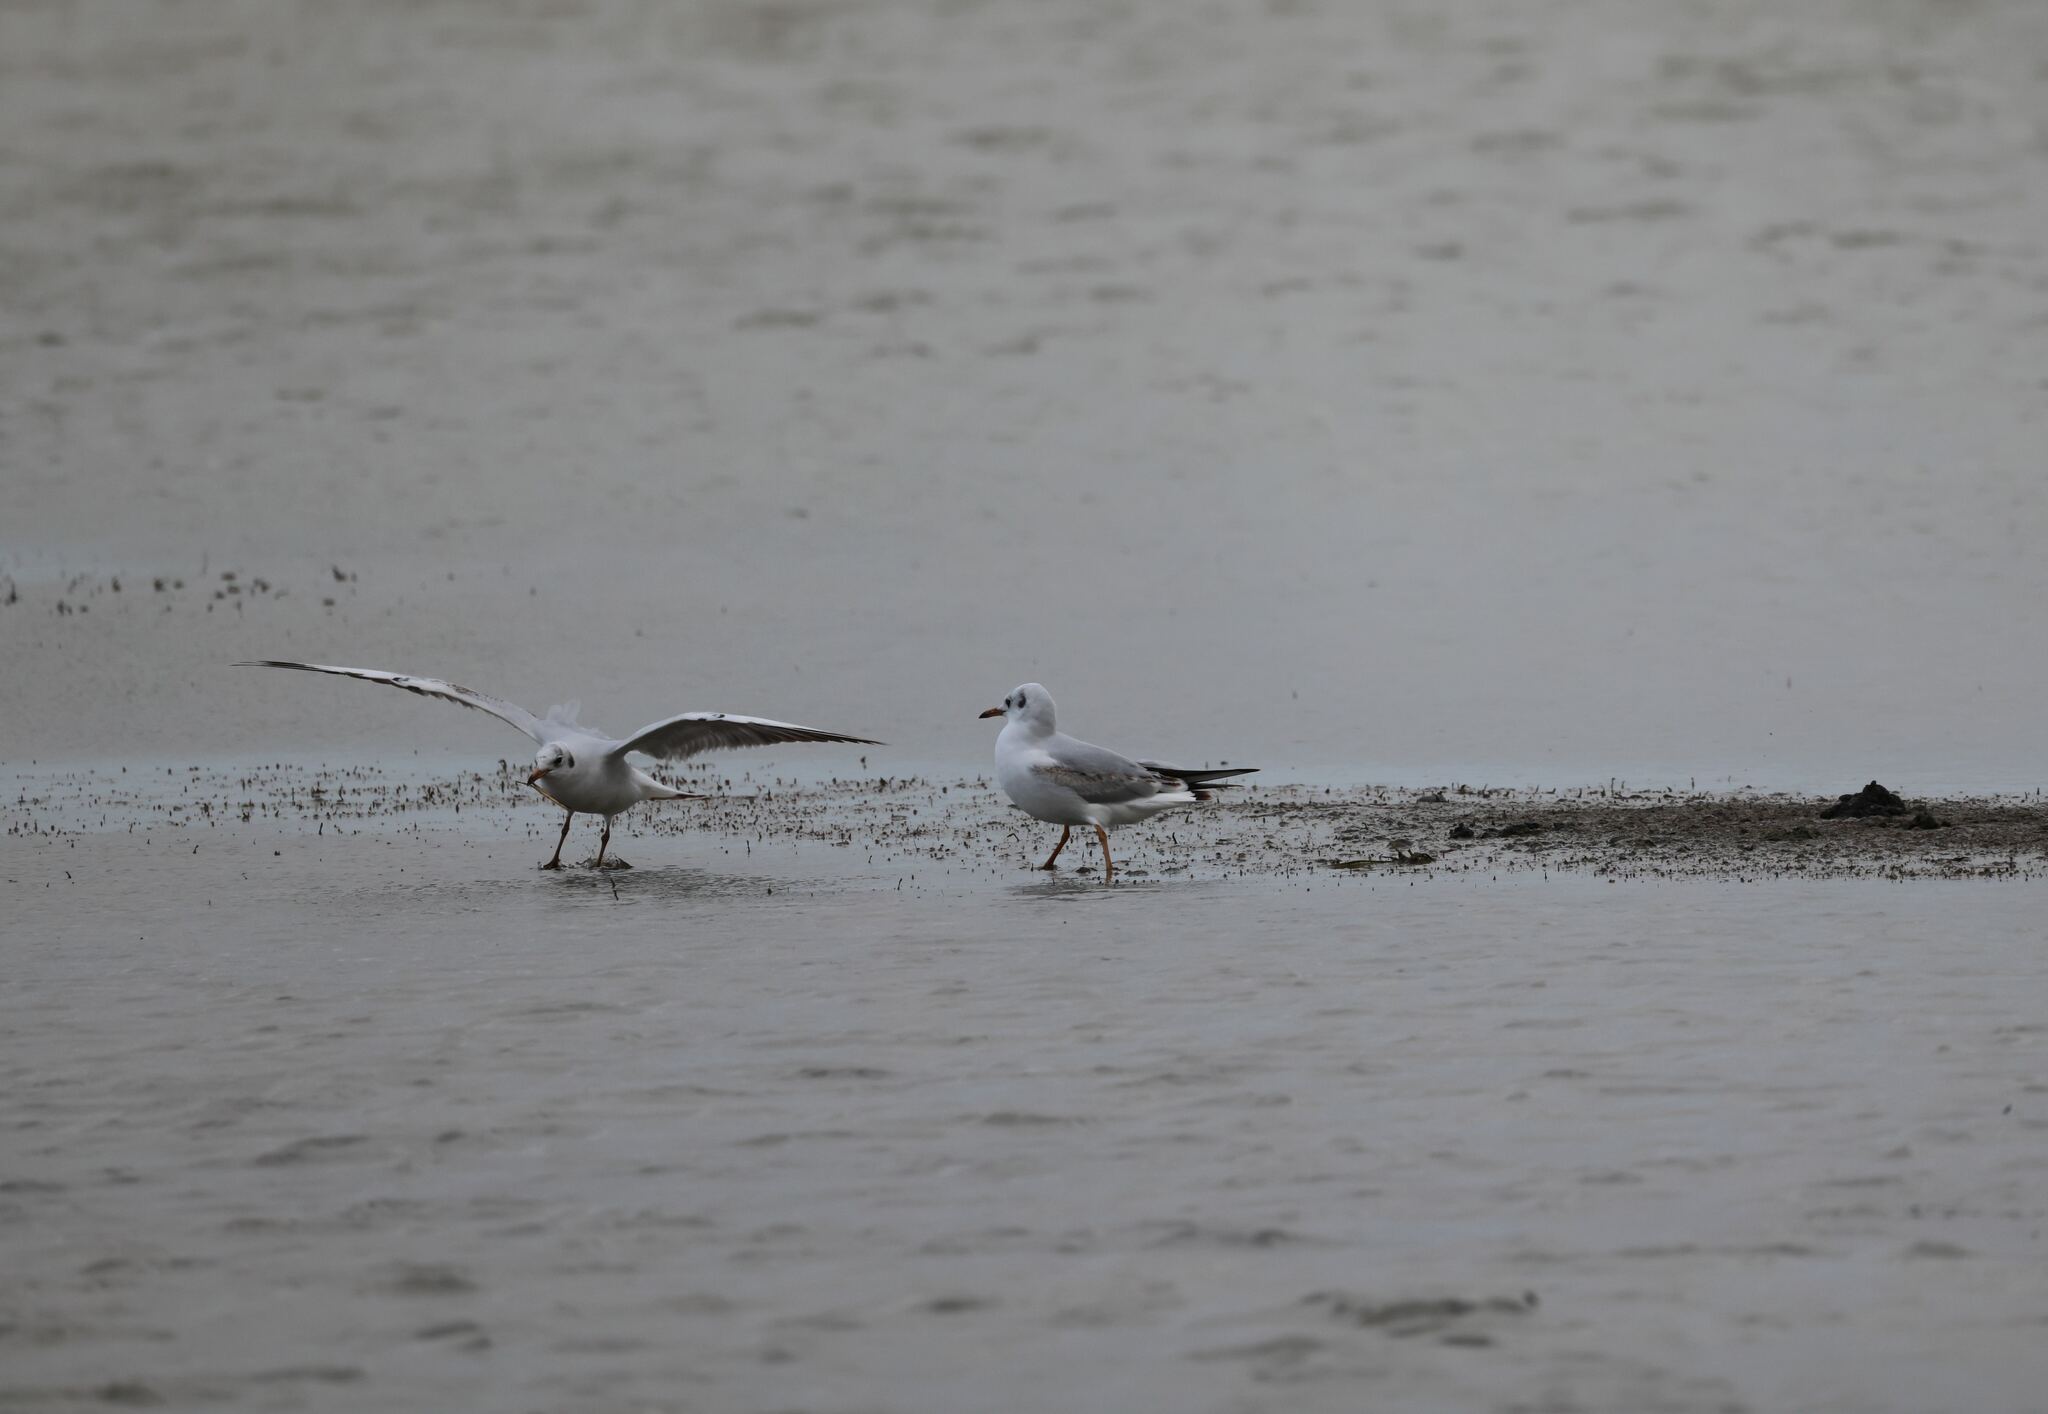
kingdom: Animalia
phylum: Chordata
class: Aves
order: Charadriiformes
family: Laridae
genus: Chroicocephalus
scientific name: Chroicocephalus ridibundus
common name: Black-headed gull
